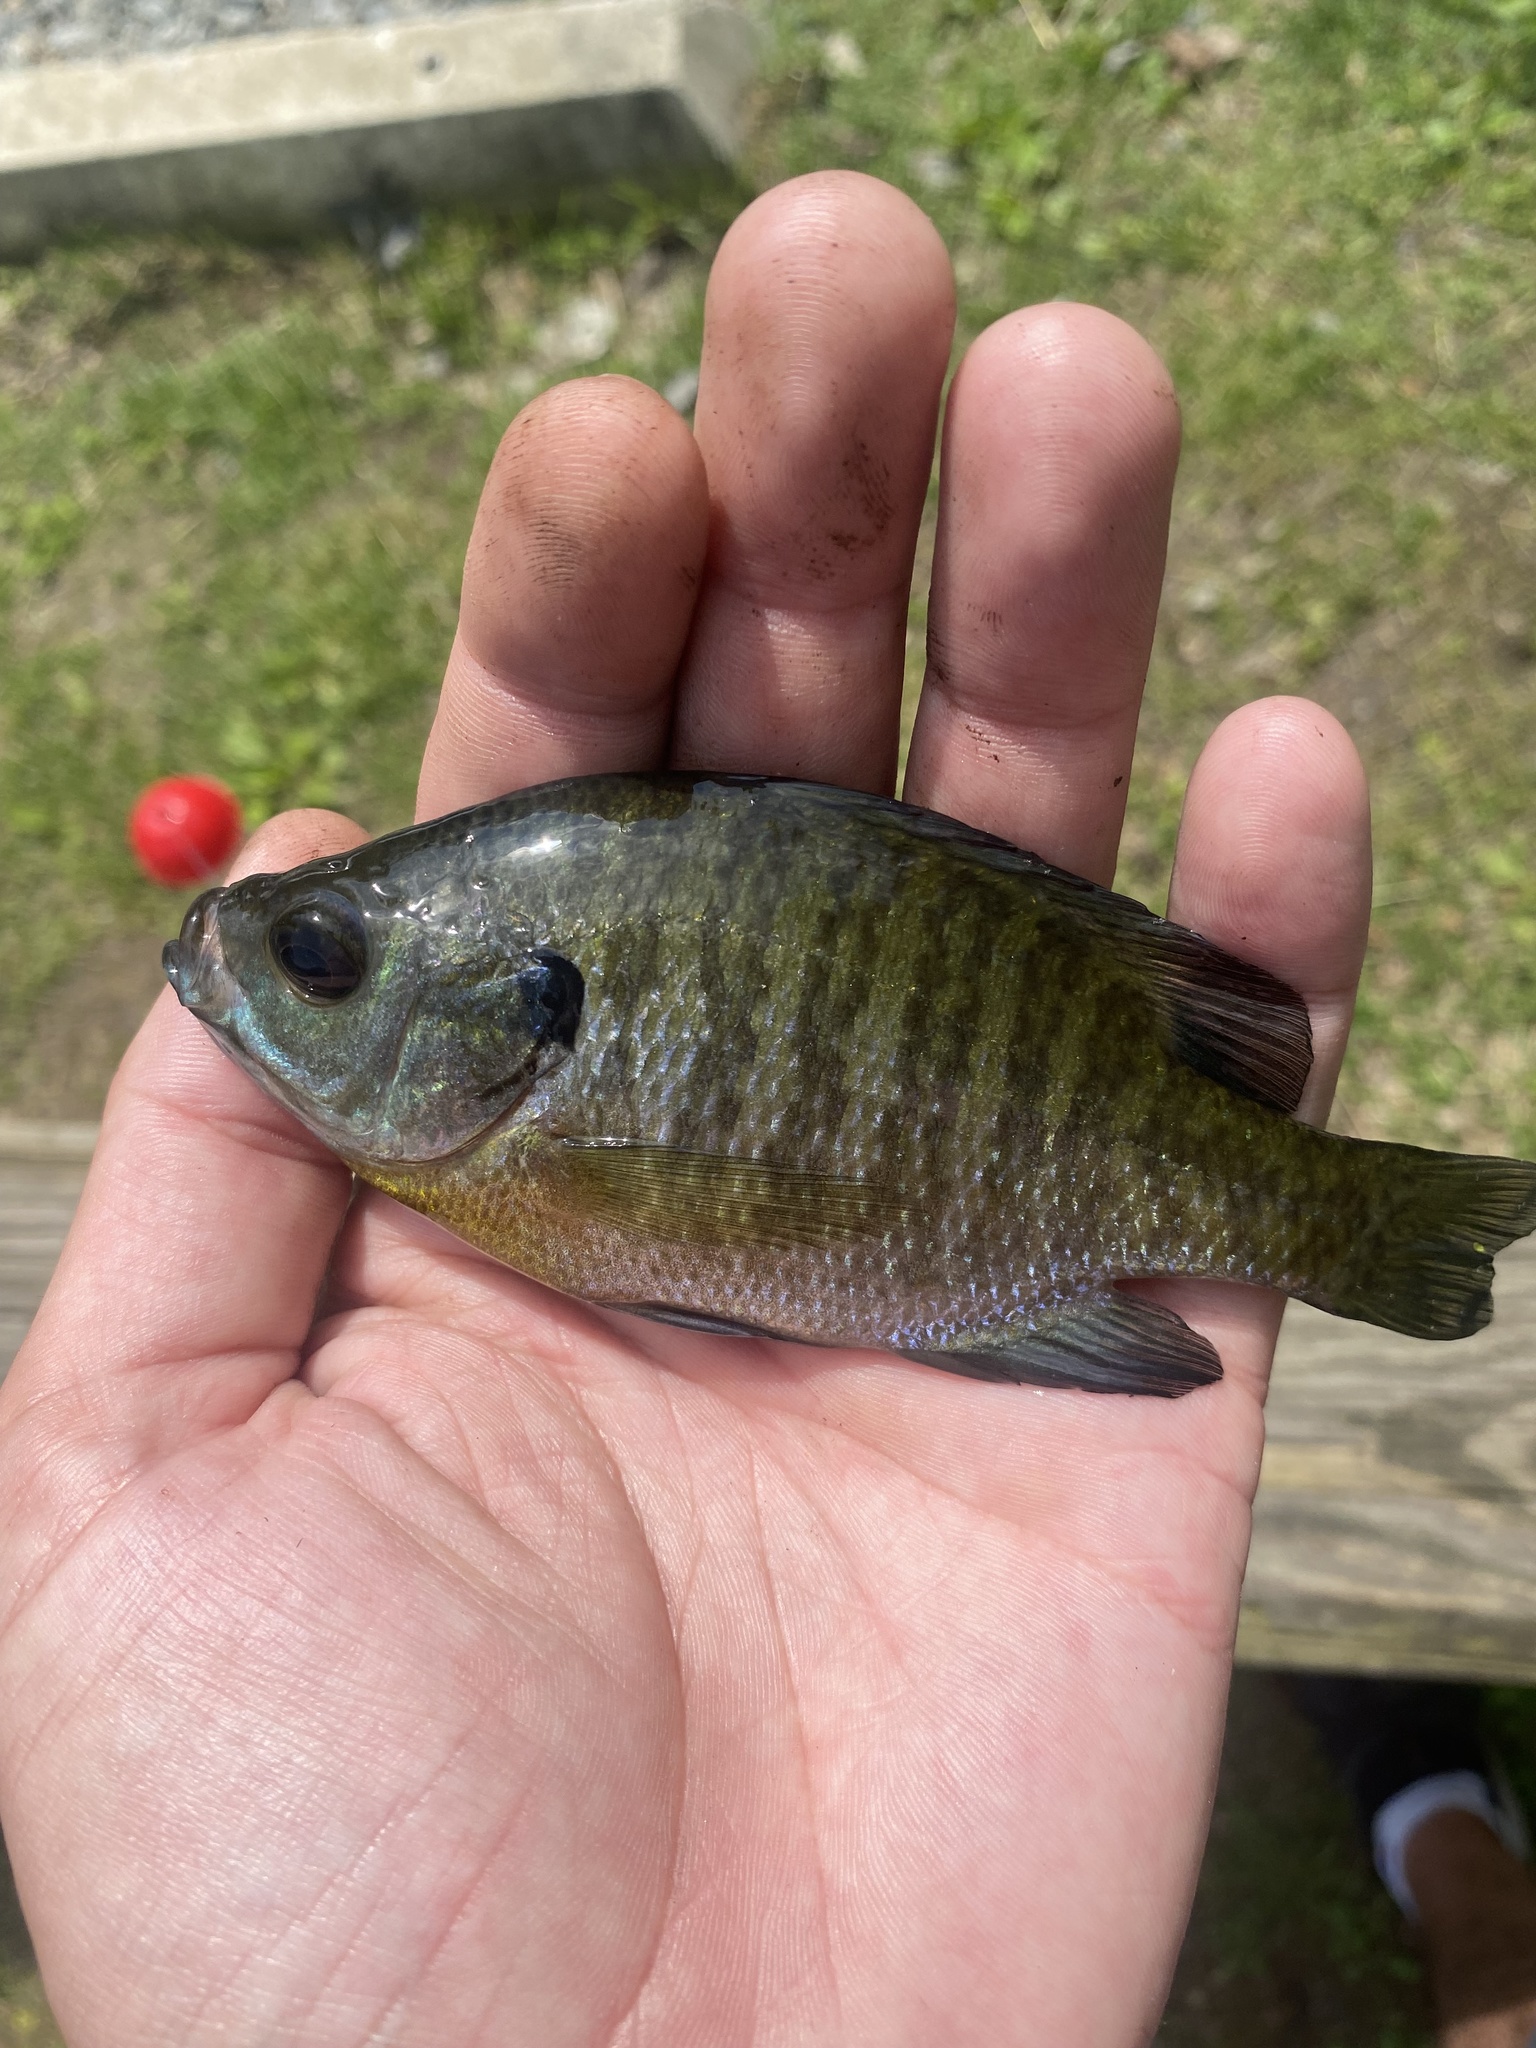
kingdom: Animalia
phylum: Chordata
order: Perciformes
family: Centrarchidae
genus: Lepomis
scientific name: Lepomis macrochirus
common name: Bluegill
